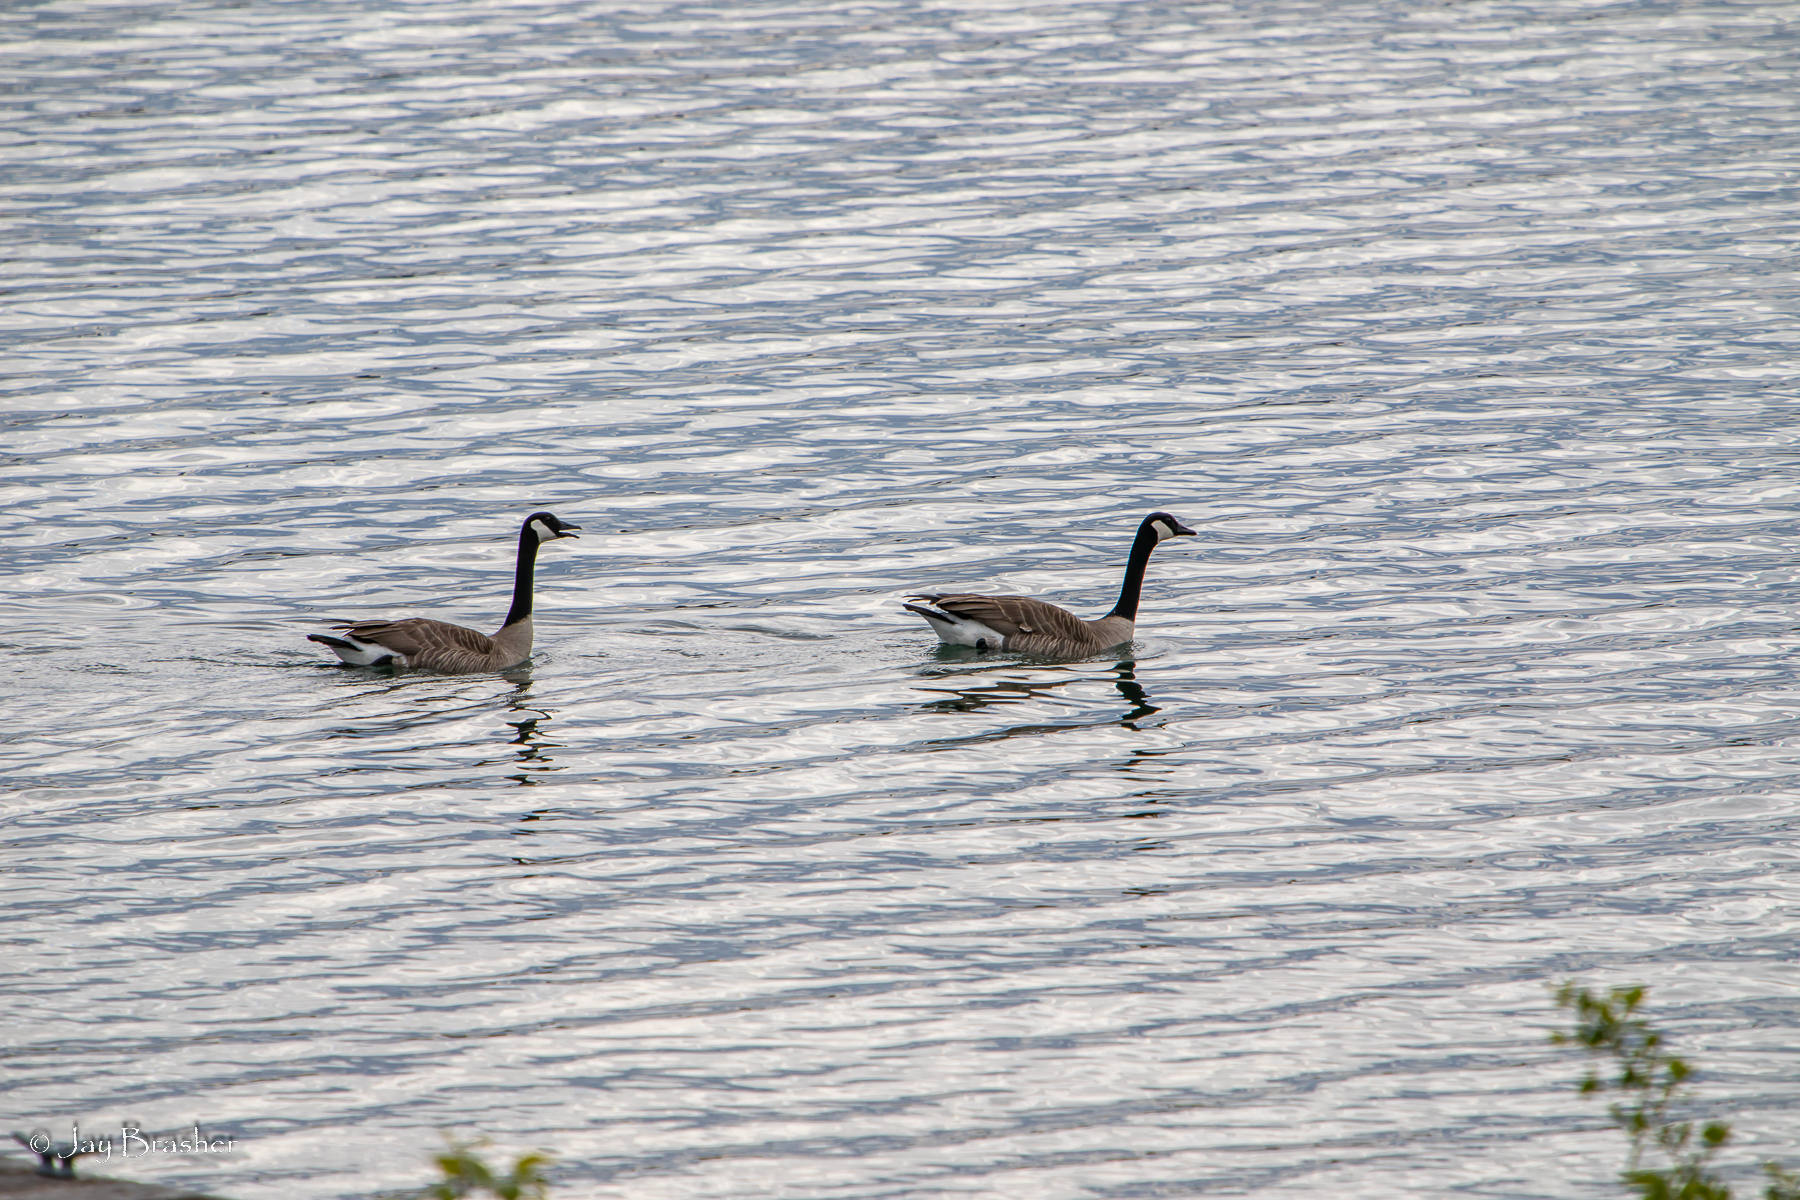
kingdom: Animalia
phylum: Chordata
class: Aves
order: Anseriformes
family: Anatidae
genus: Branta
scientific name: Branta canadensis
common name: Canada goose
